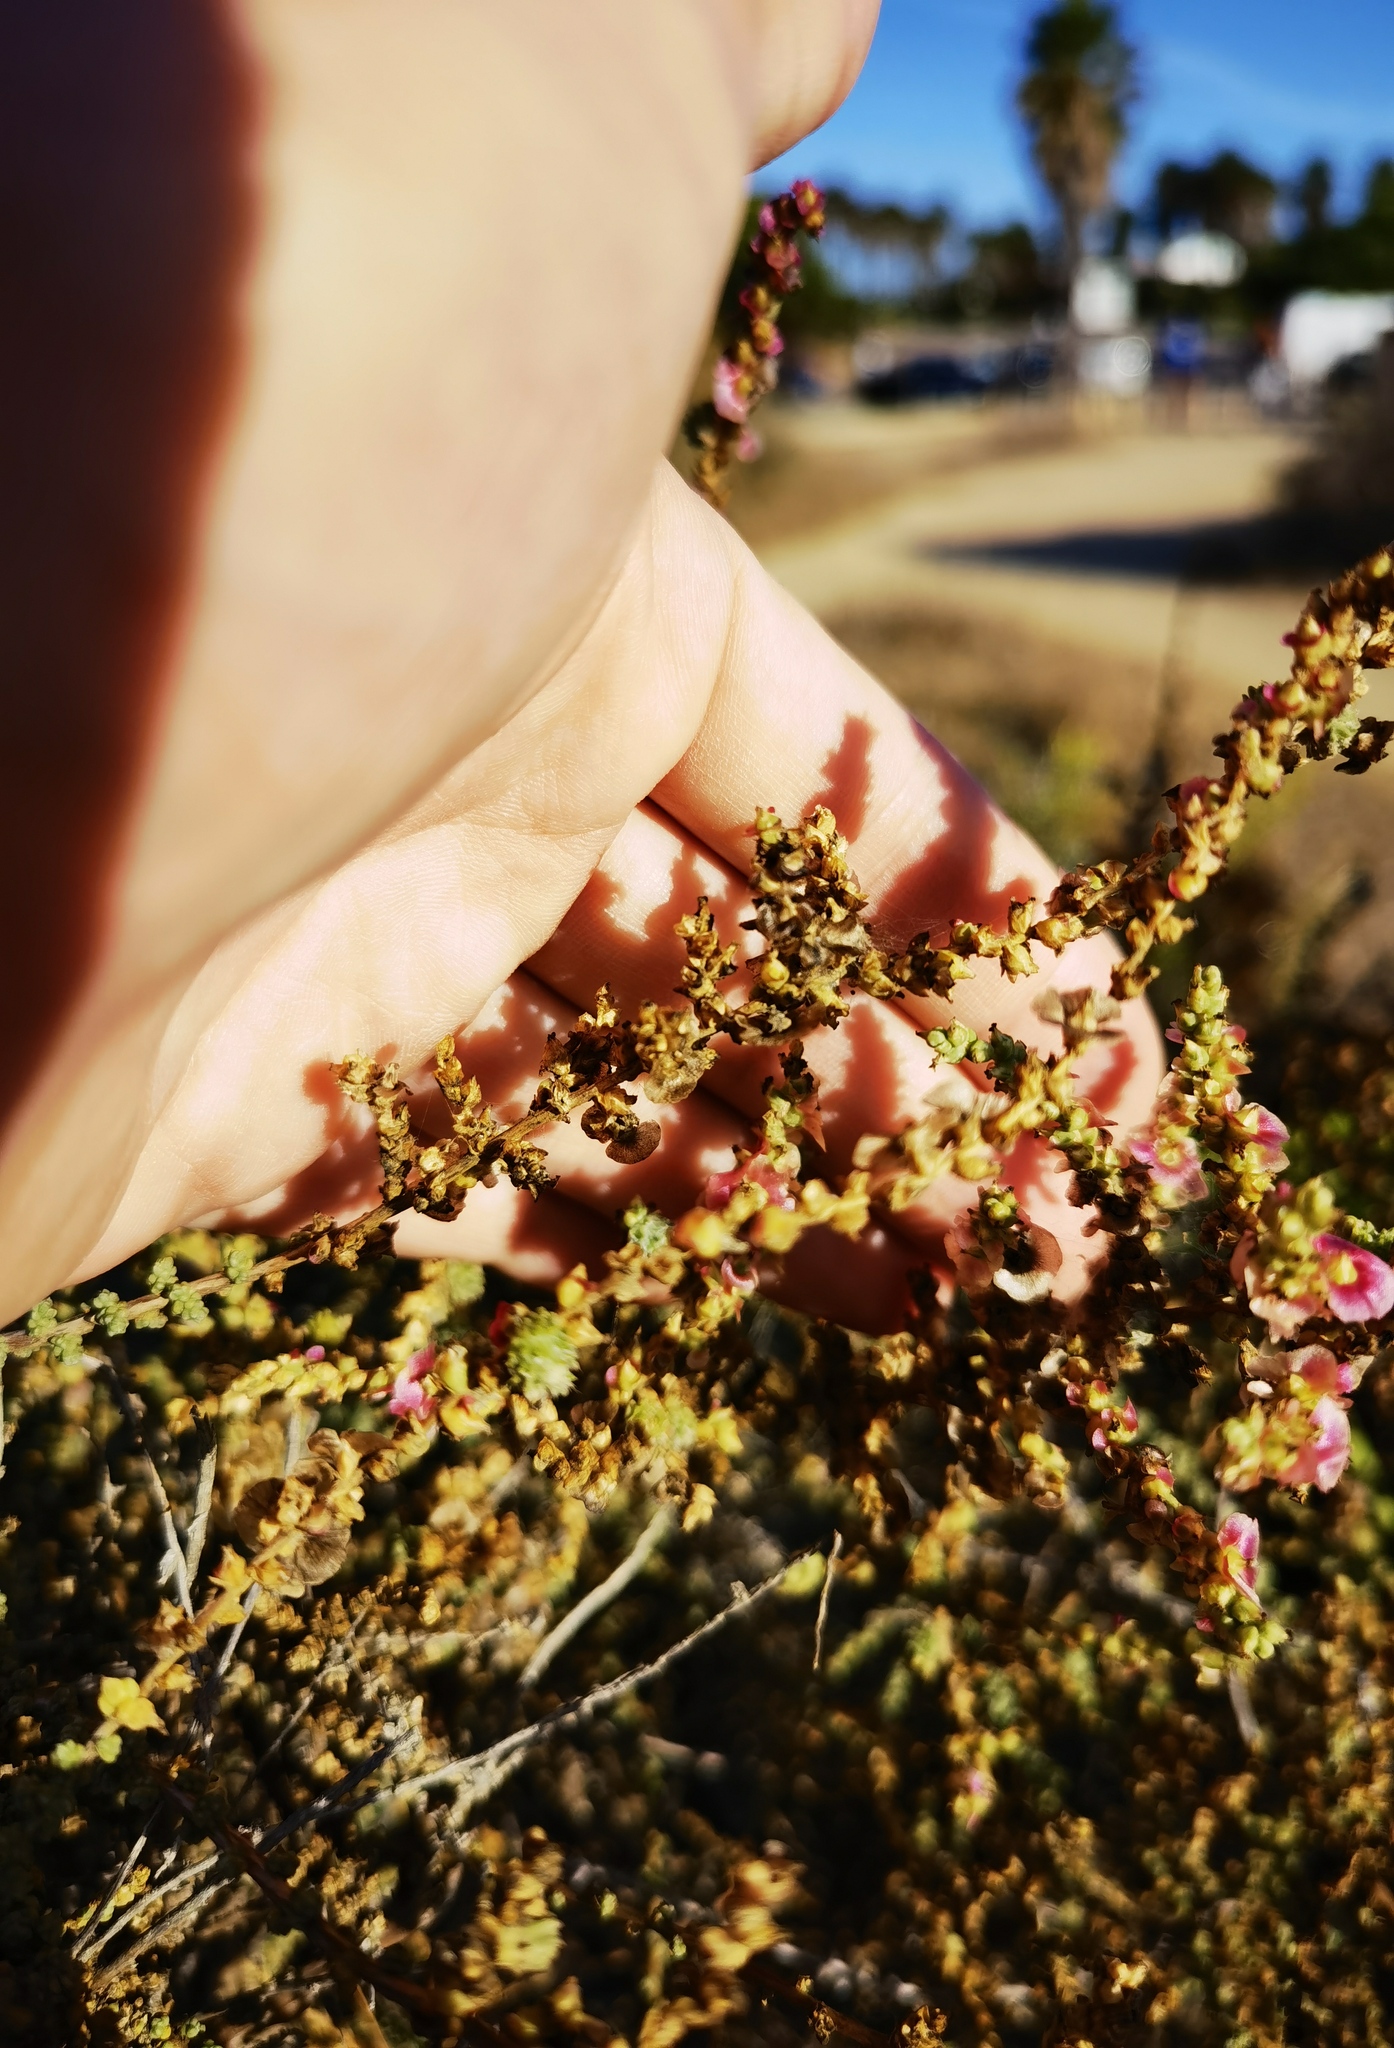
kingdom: Plantae
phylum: Tracheophyta
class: Magnoliopsida
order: Caryophyllales
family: Amaranthaceae
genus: Nitrosalsola
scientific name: Nitrosalsola vermiculata
